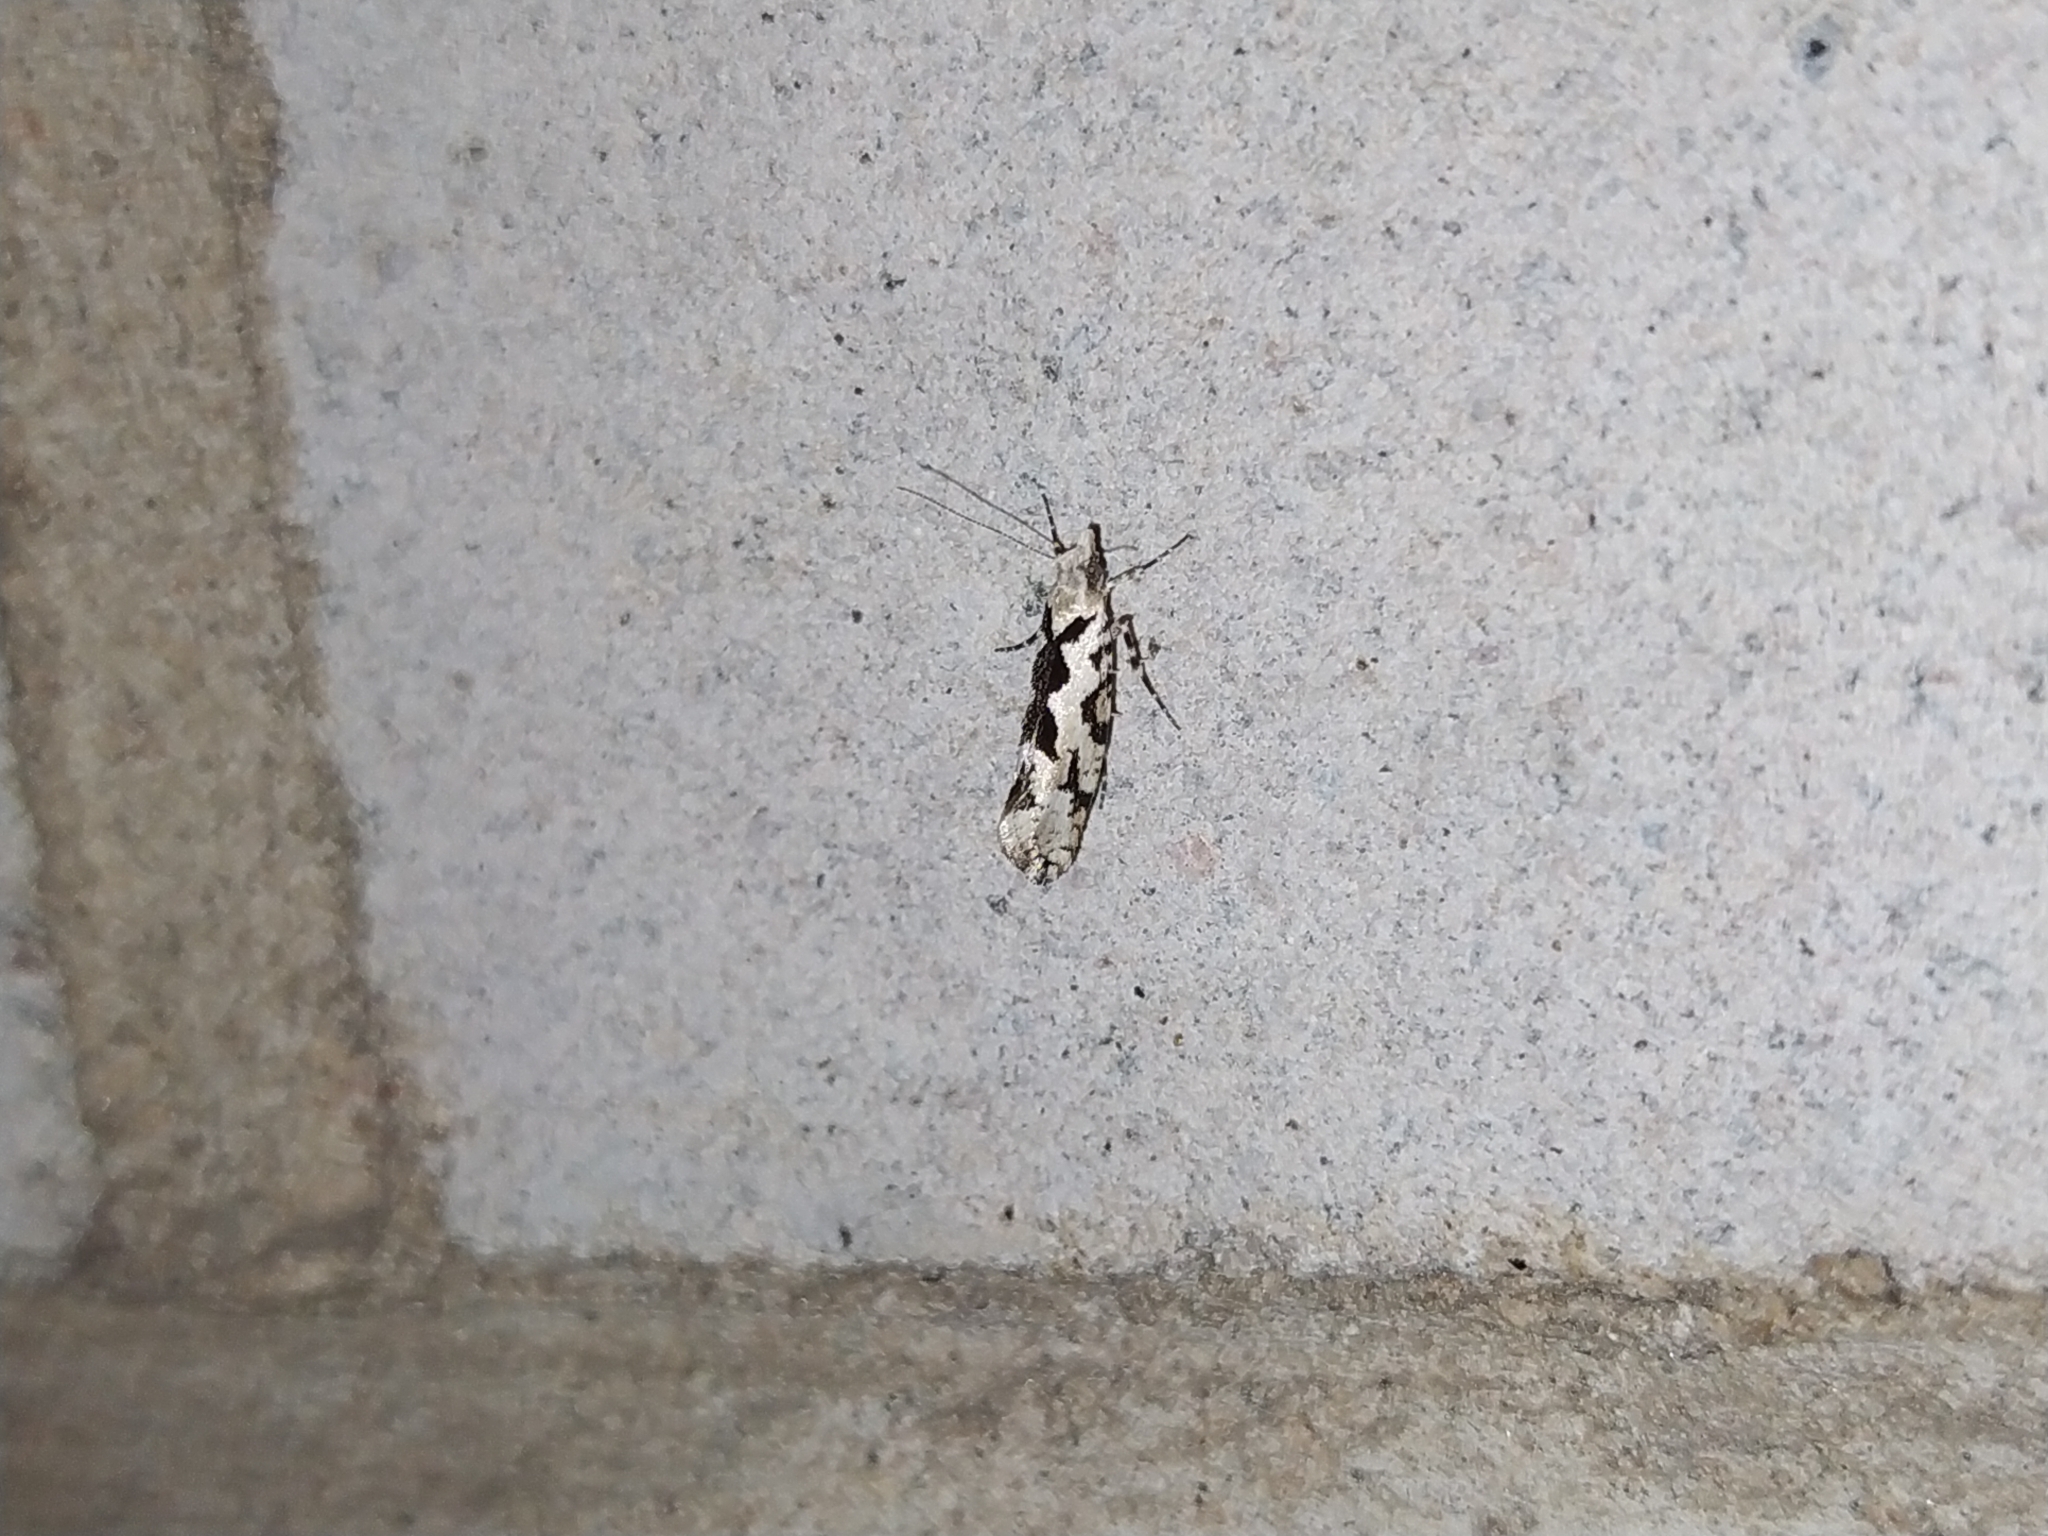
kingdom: Animalia
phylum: Arthropoda
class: Insecta
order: Lepidoptera
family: Plutellidae
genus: Ypsolophus
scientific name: Ypsolophus sequella
